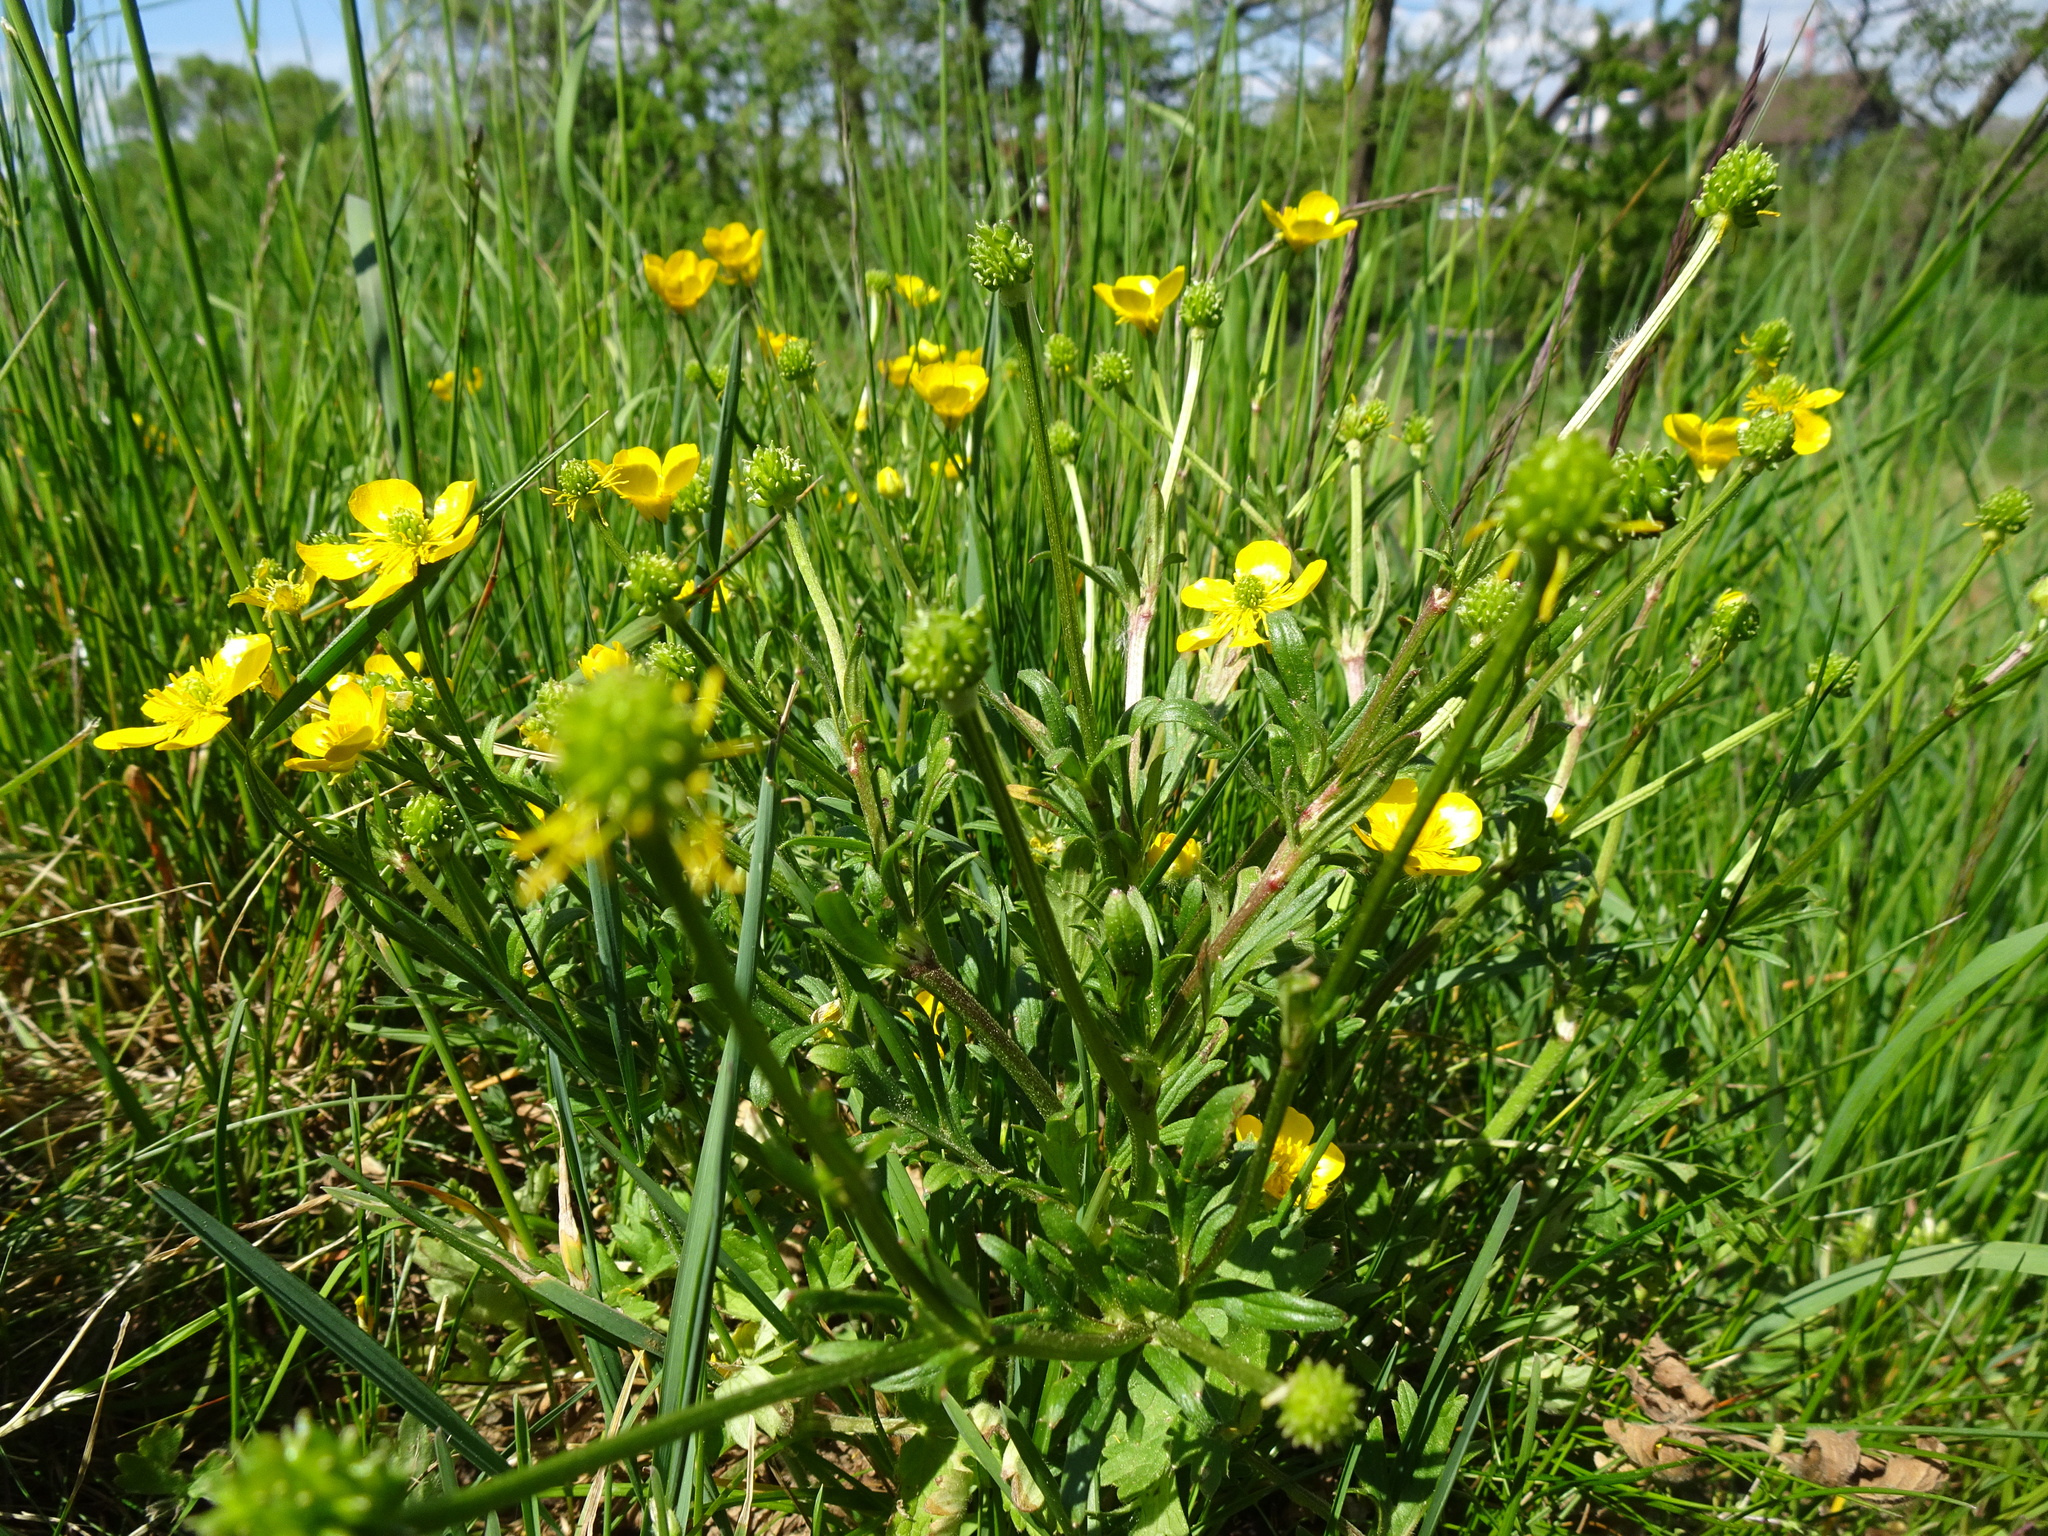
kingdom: Plantae
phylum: Tracheophyta
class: Magnoliopsida
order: Ranunculales
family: Ranunculaceae
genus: Ranunculus
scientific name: Ranunculus bulbosus
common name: Bulbous buttercup
